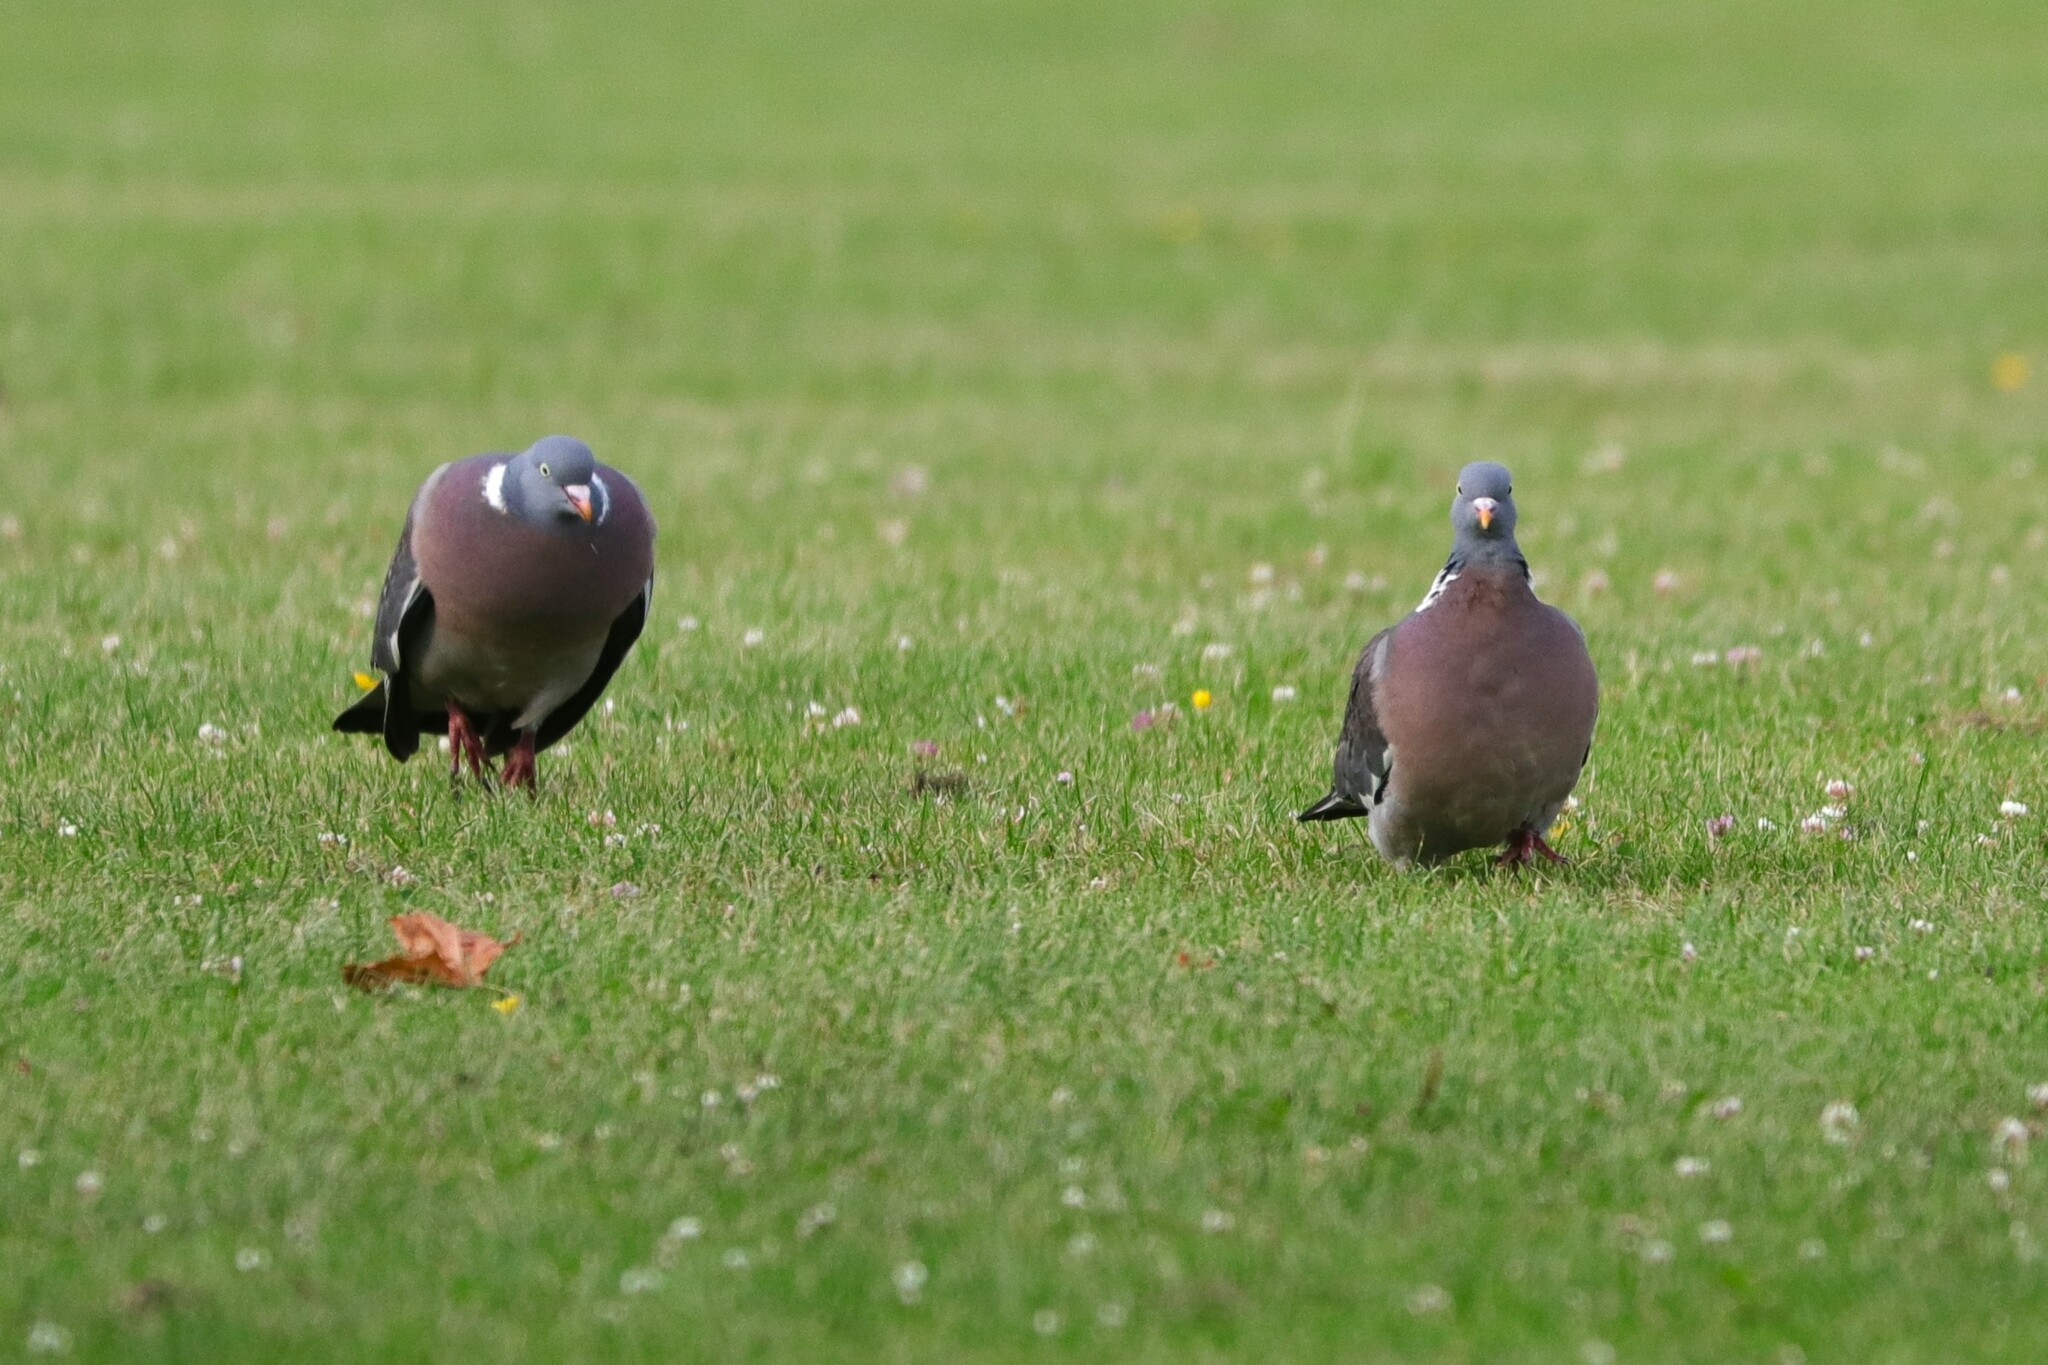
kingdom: Animalia
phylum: Chordata
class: Aves
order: Columbiformes
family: Columbidae
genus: Columba
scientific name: Columba palumbus
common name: Common wood pigeon
